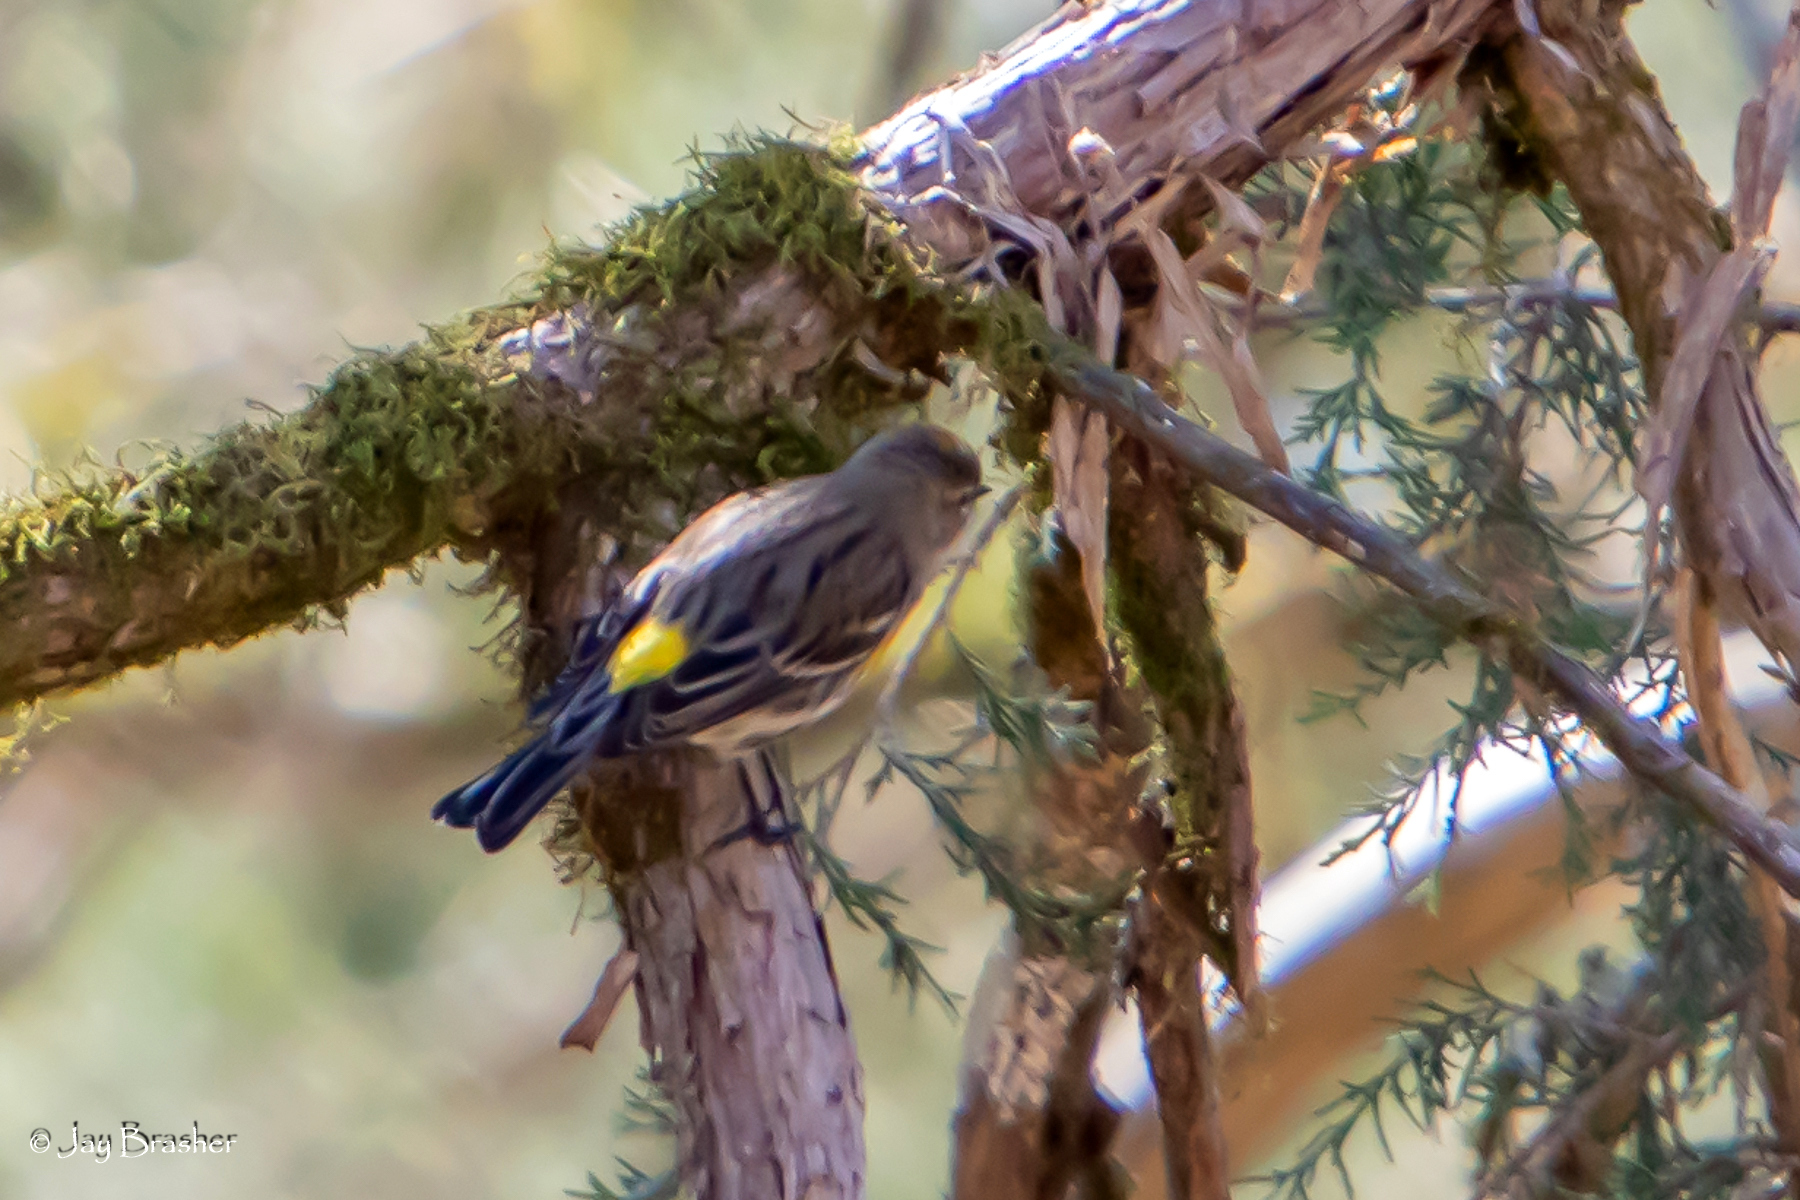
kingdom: Animalia
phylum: Chordata
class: Aves
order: Passeriformes
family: Parulidae
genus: Setophaga
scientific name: Setophaga coronata
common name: Myrtle warbler
